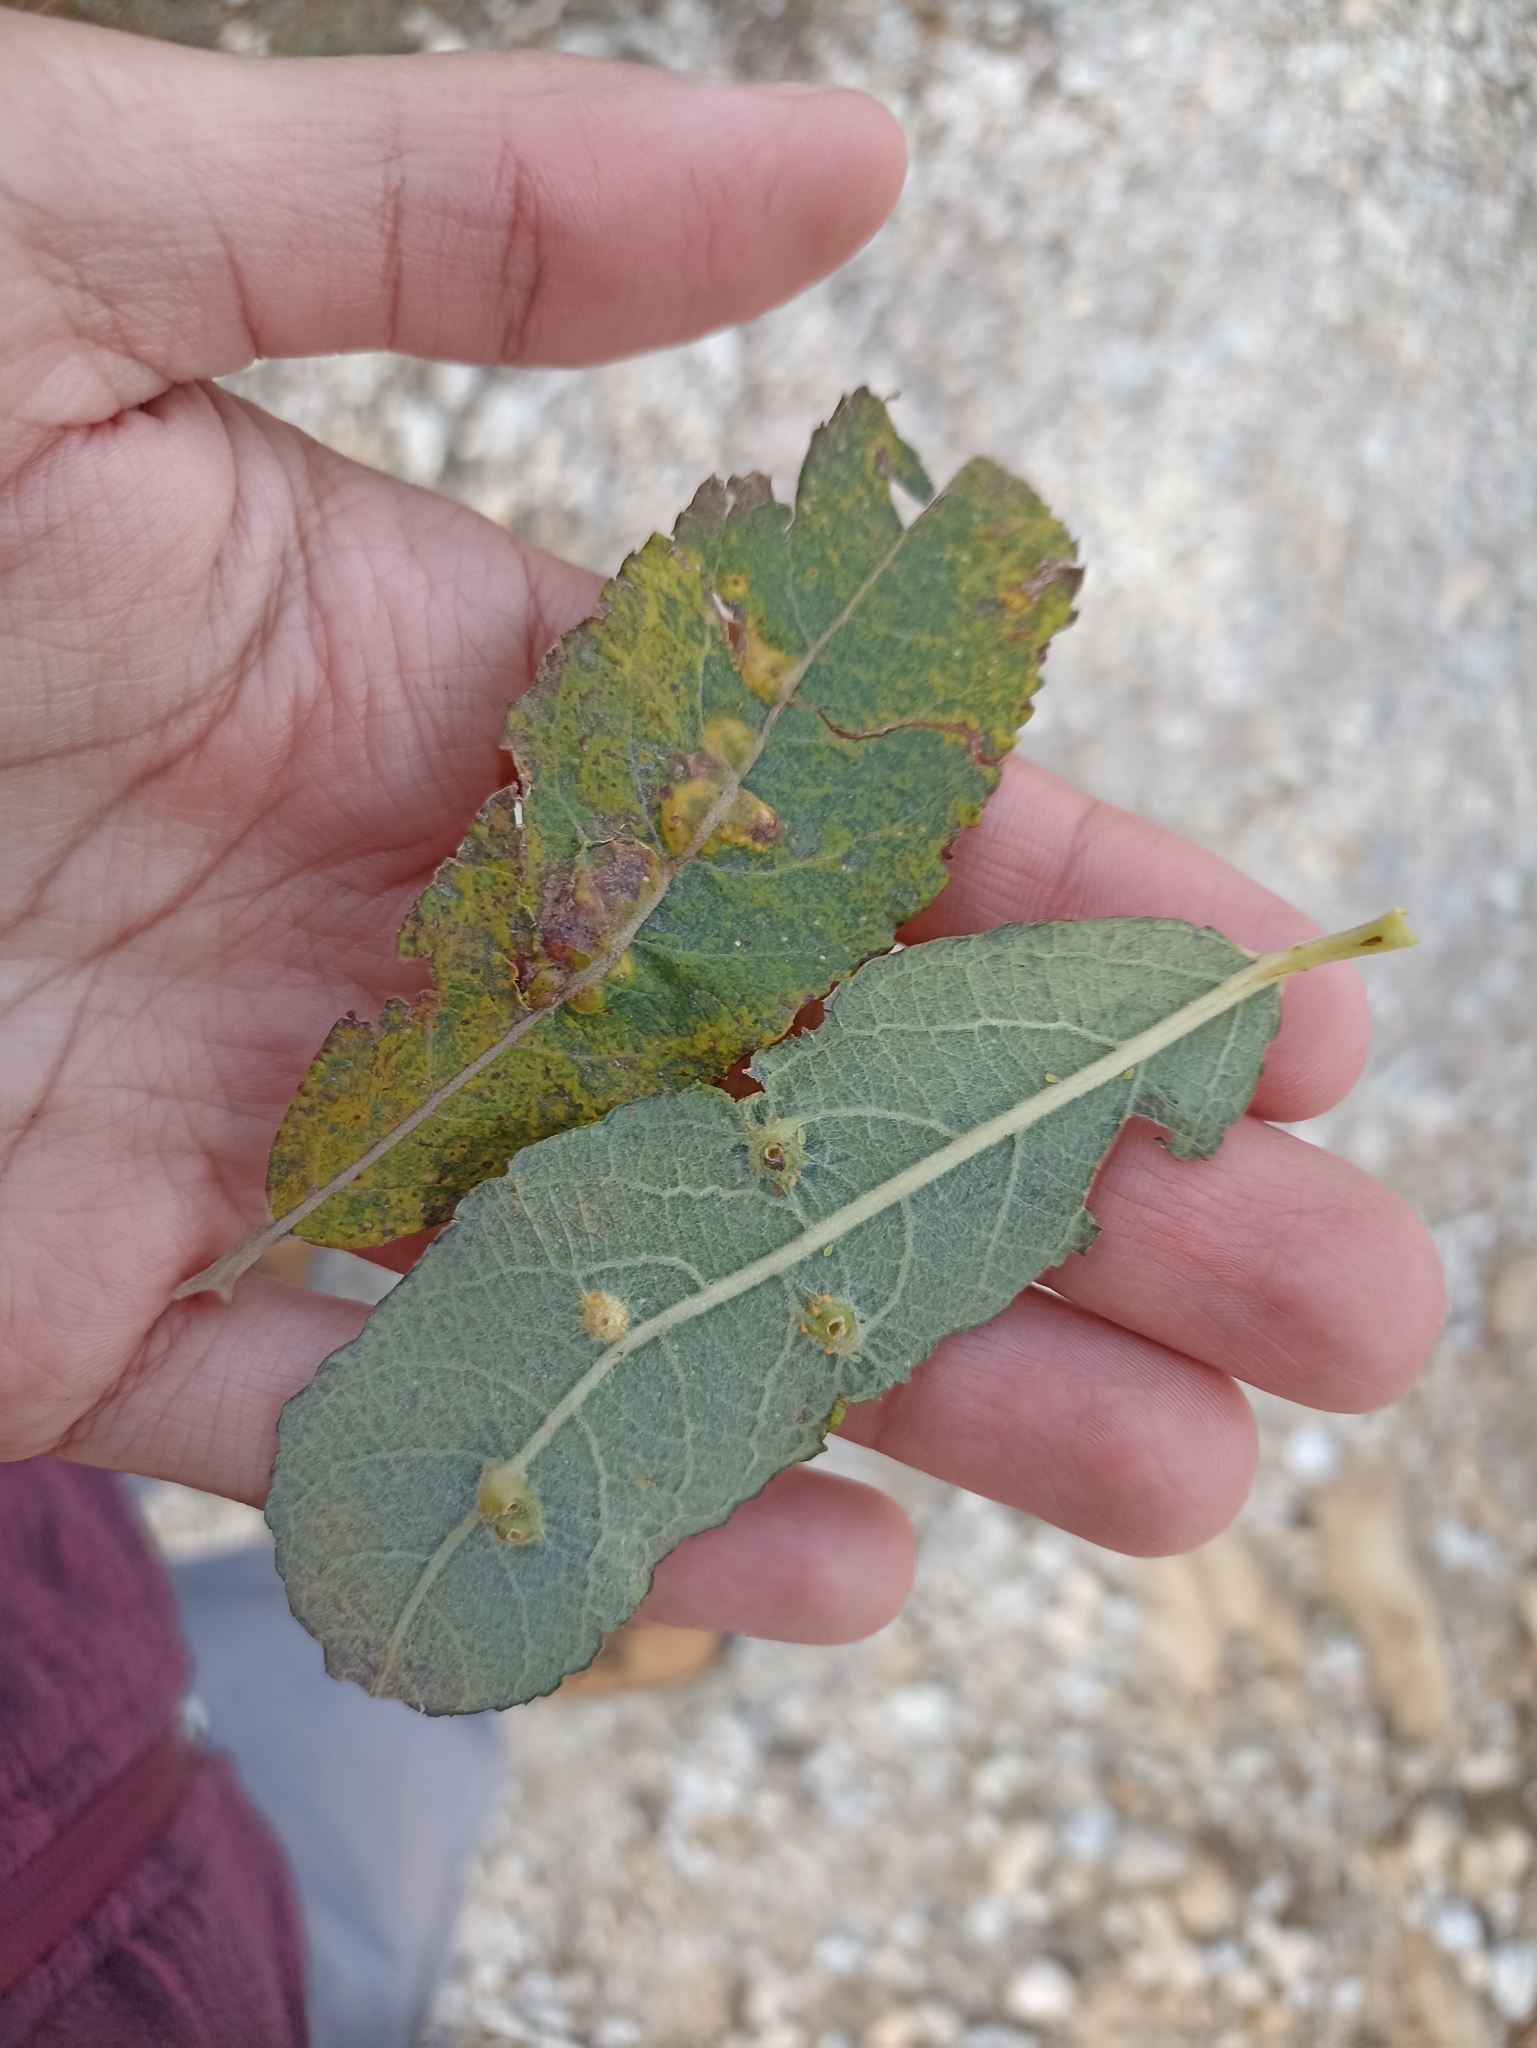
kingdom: Plantae
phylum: Tracheophyta
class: Magnoliopsida
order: Malpighiales
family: Salicaceae
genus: Salix
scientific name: Salix atrocinerea
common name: Rusty willow
